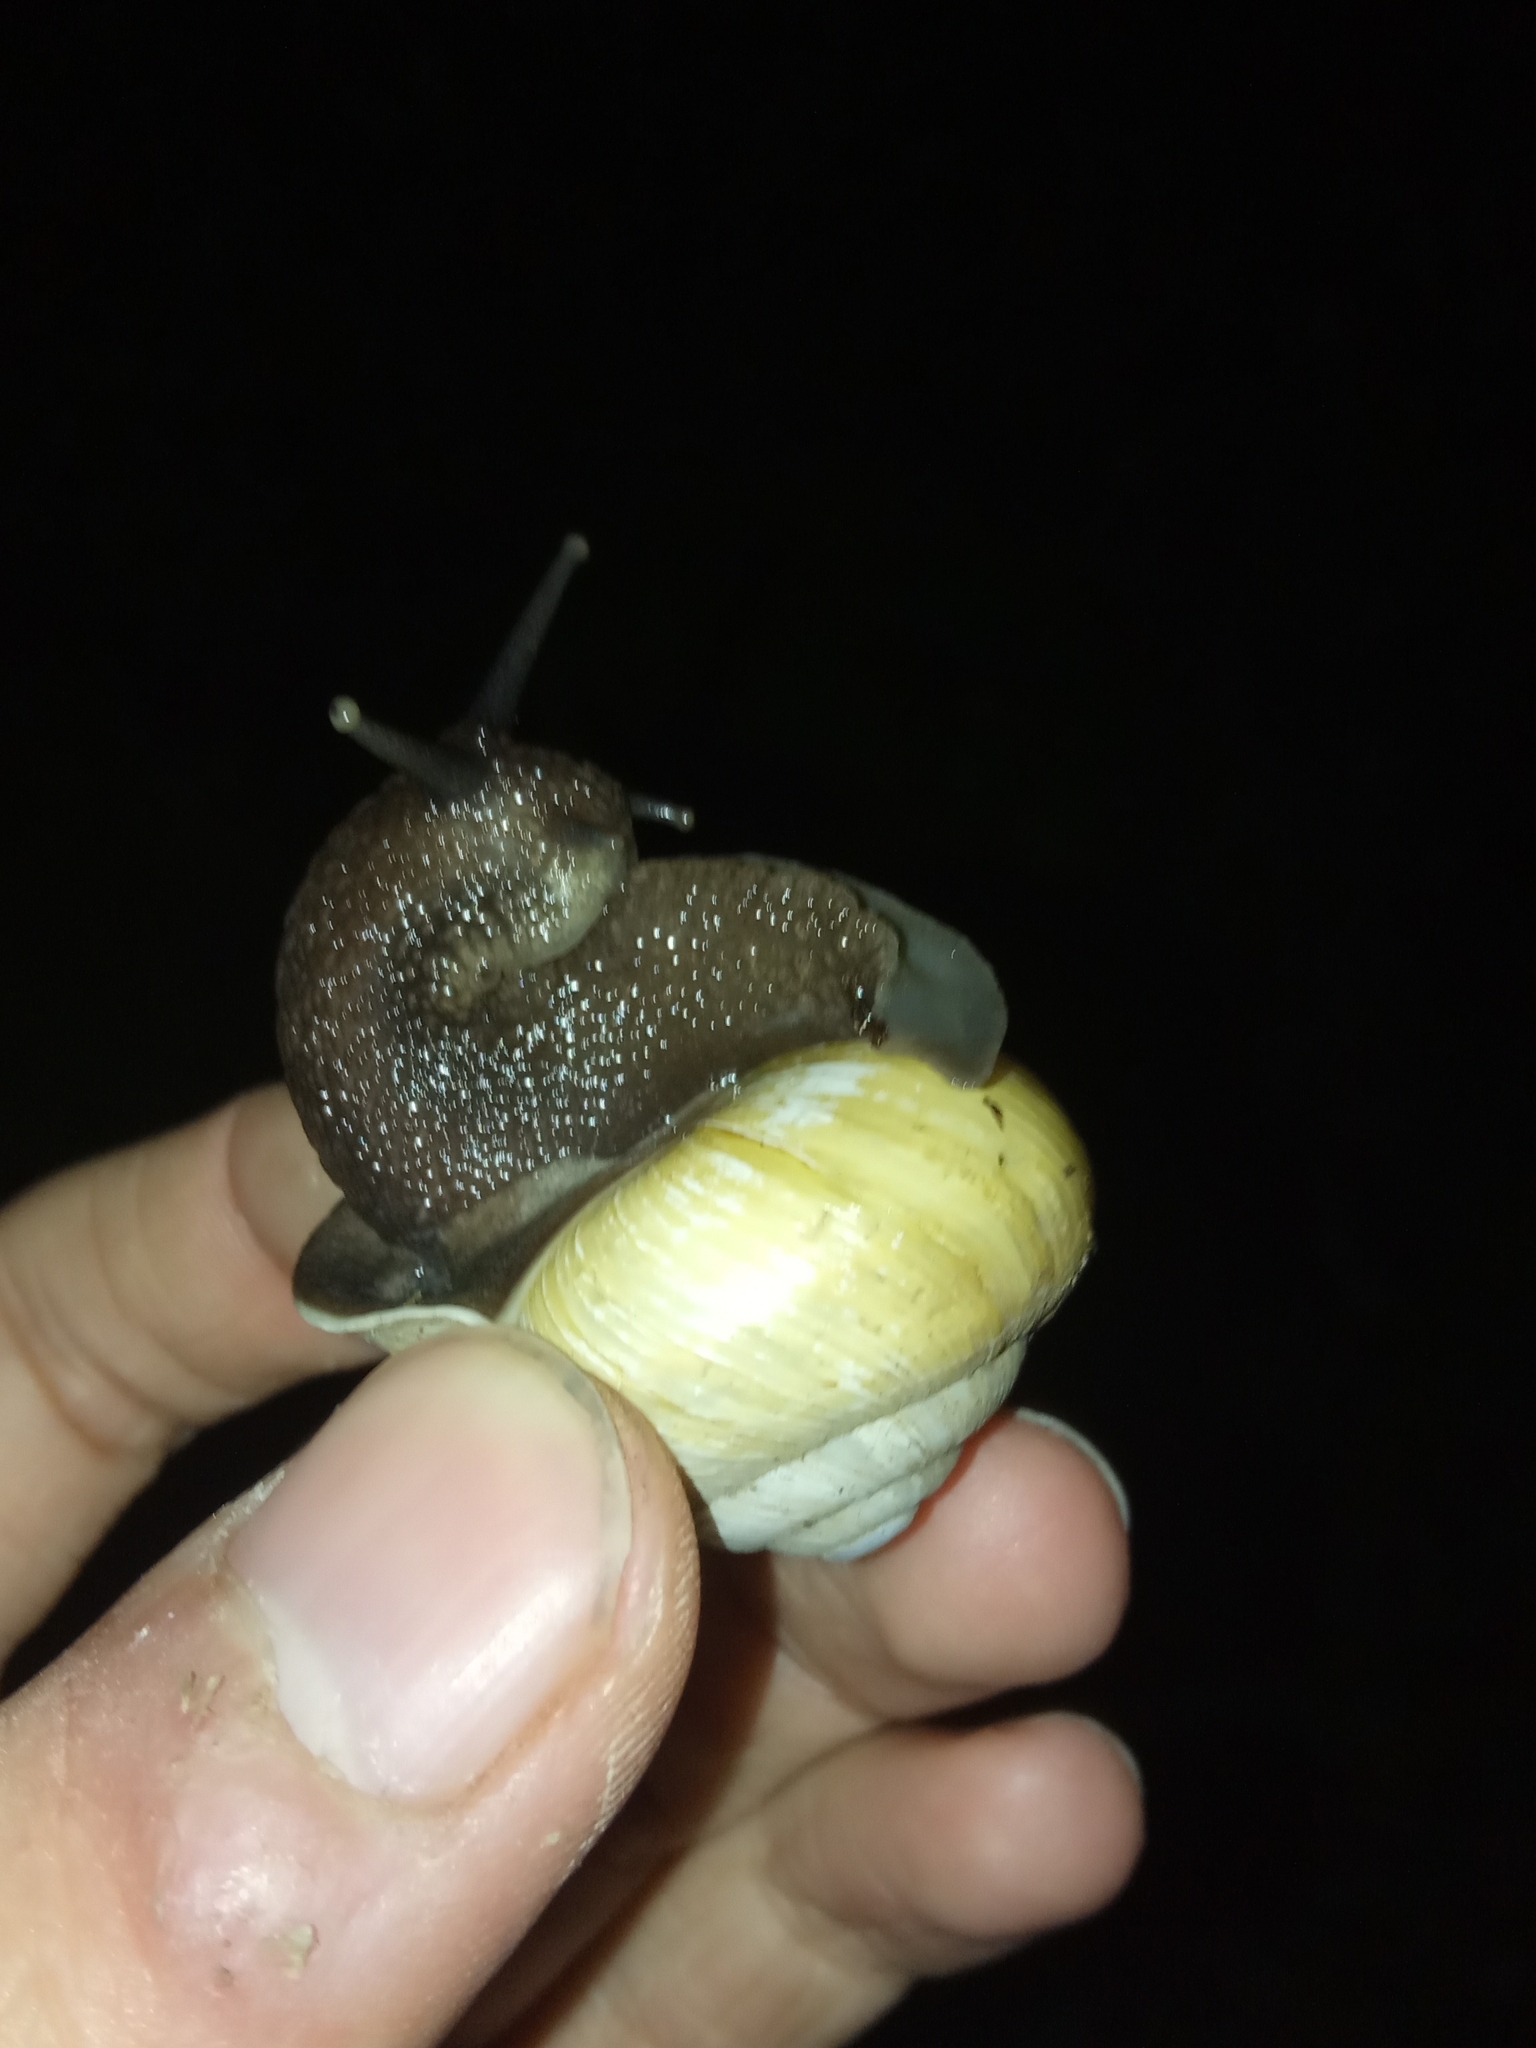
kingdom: Animalia
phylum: Mollusca
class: Gastropoda
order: Stylommatophora
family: Helicidae
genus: Caucasotachea
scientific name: Caucasotachea atrolabiata
